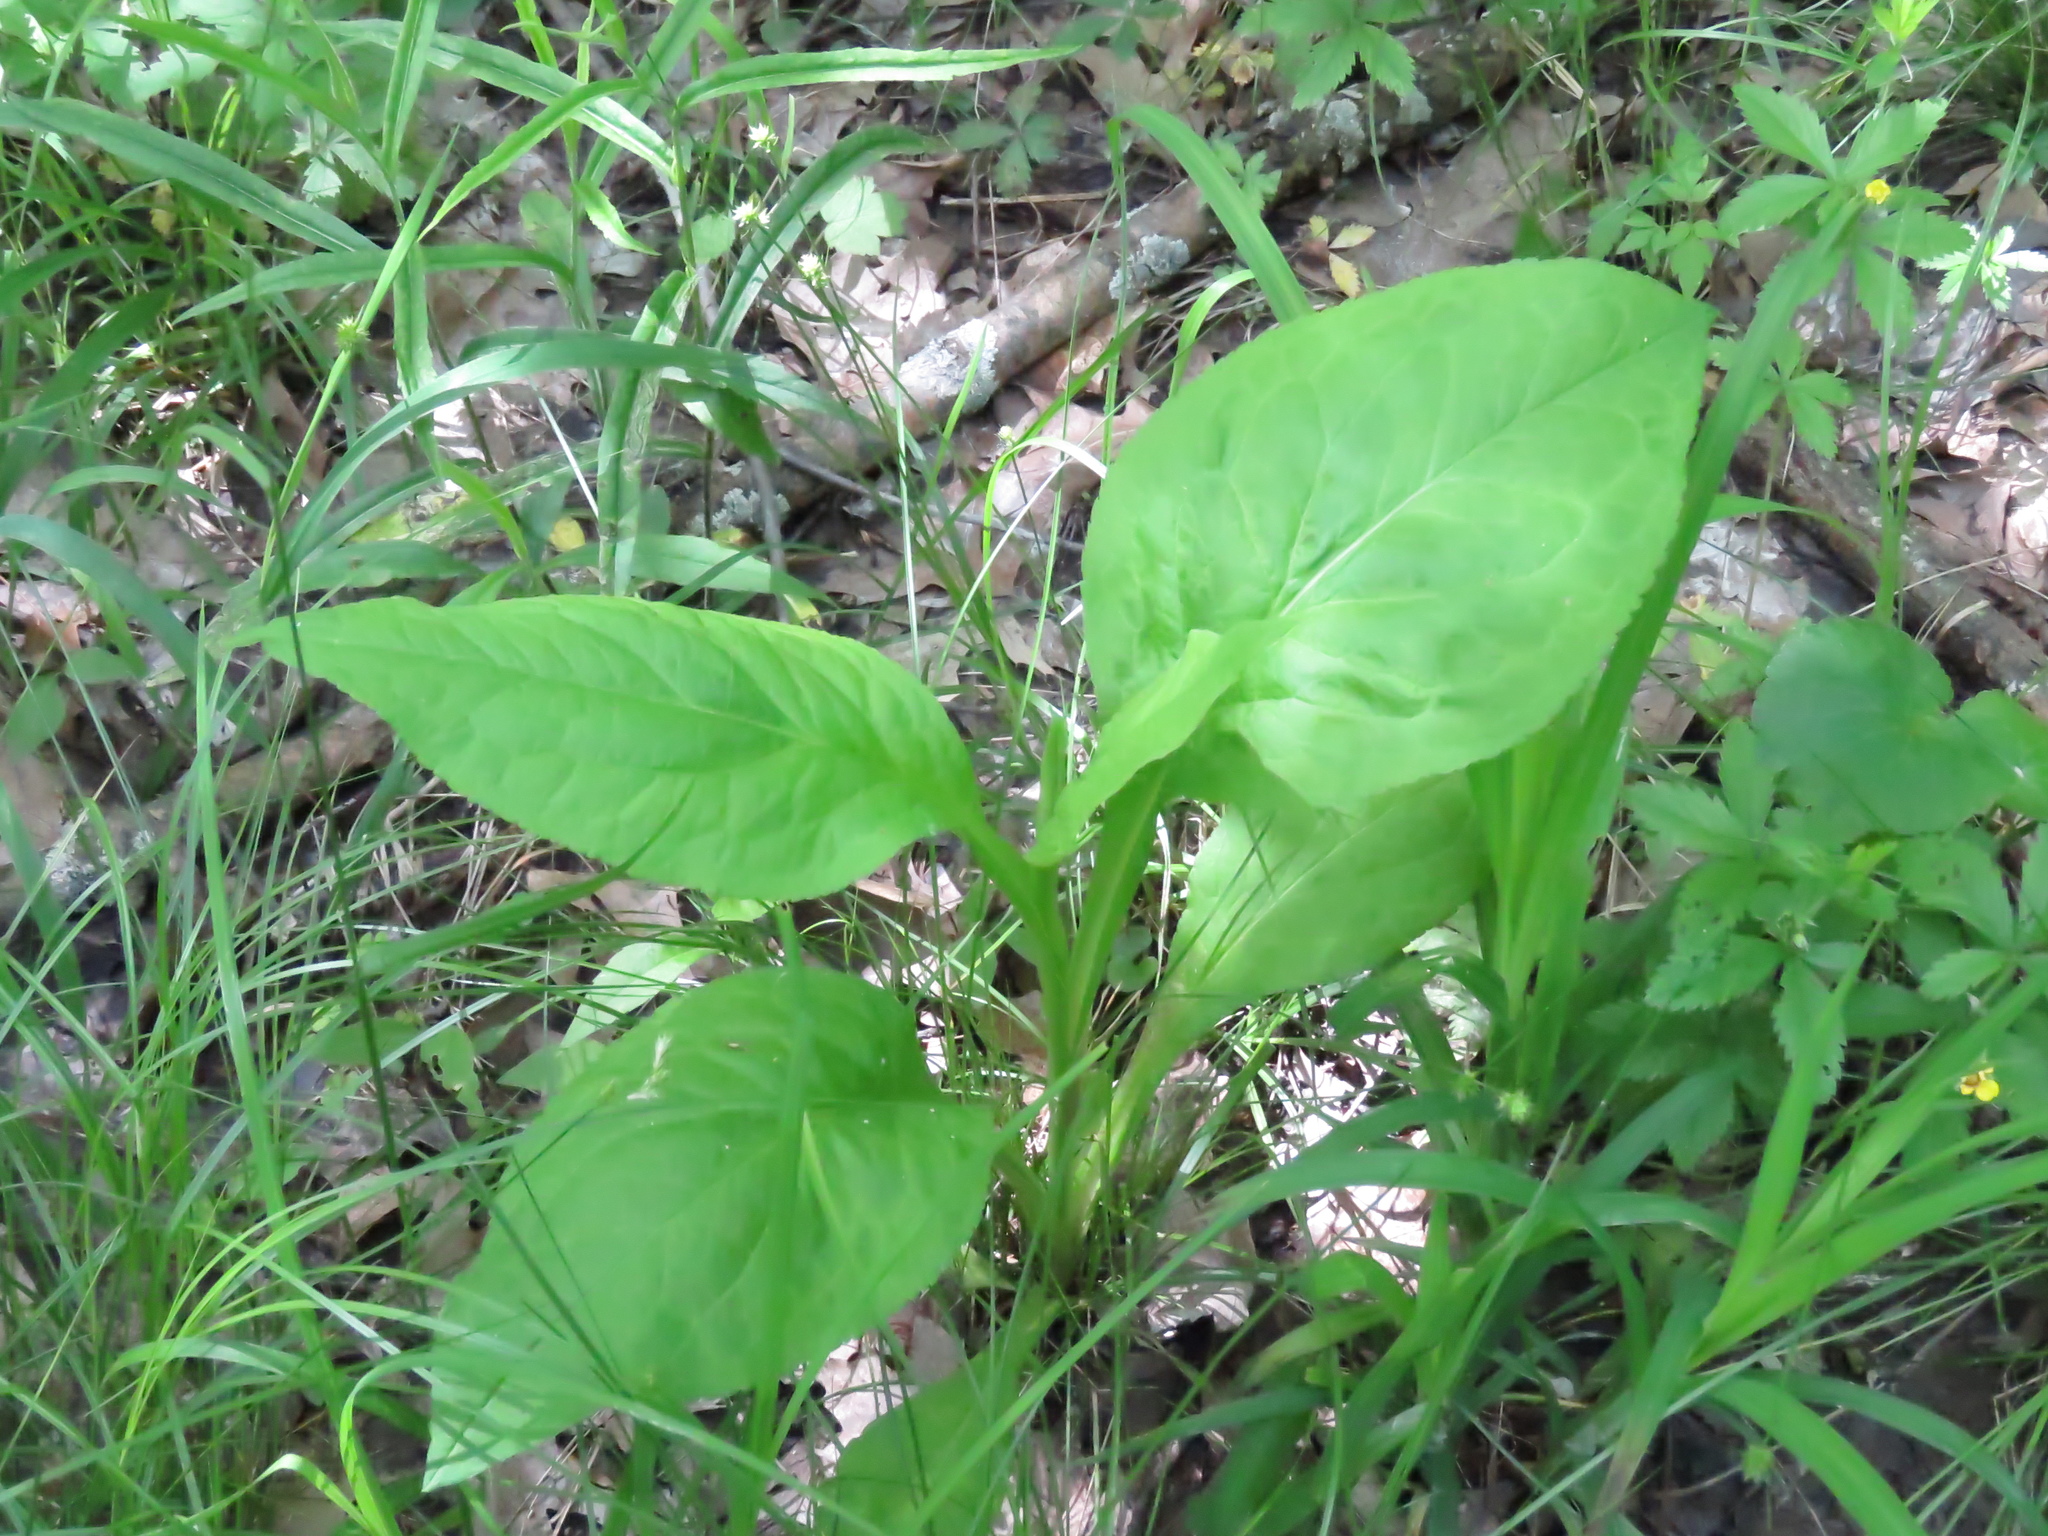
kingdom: Plantae
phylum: Tracheophyta
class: Magnoliopsida
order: Asterales
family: Asteraceae
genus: Solidago
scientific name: Solidago patula
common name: Rough-leaf goldenrod
